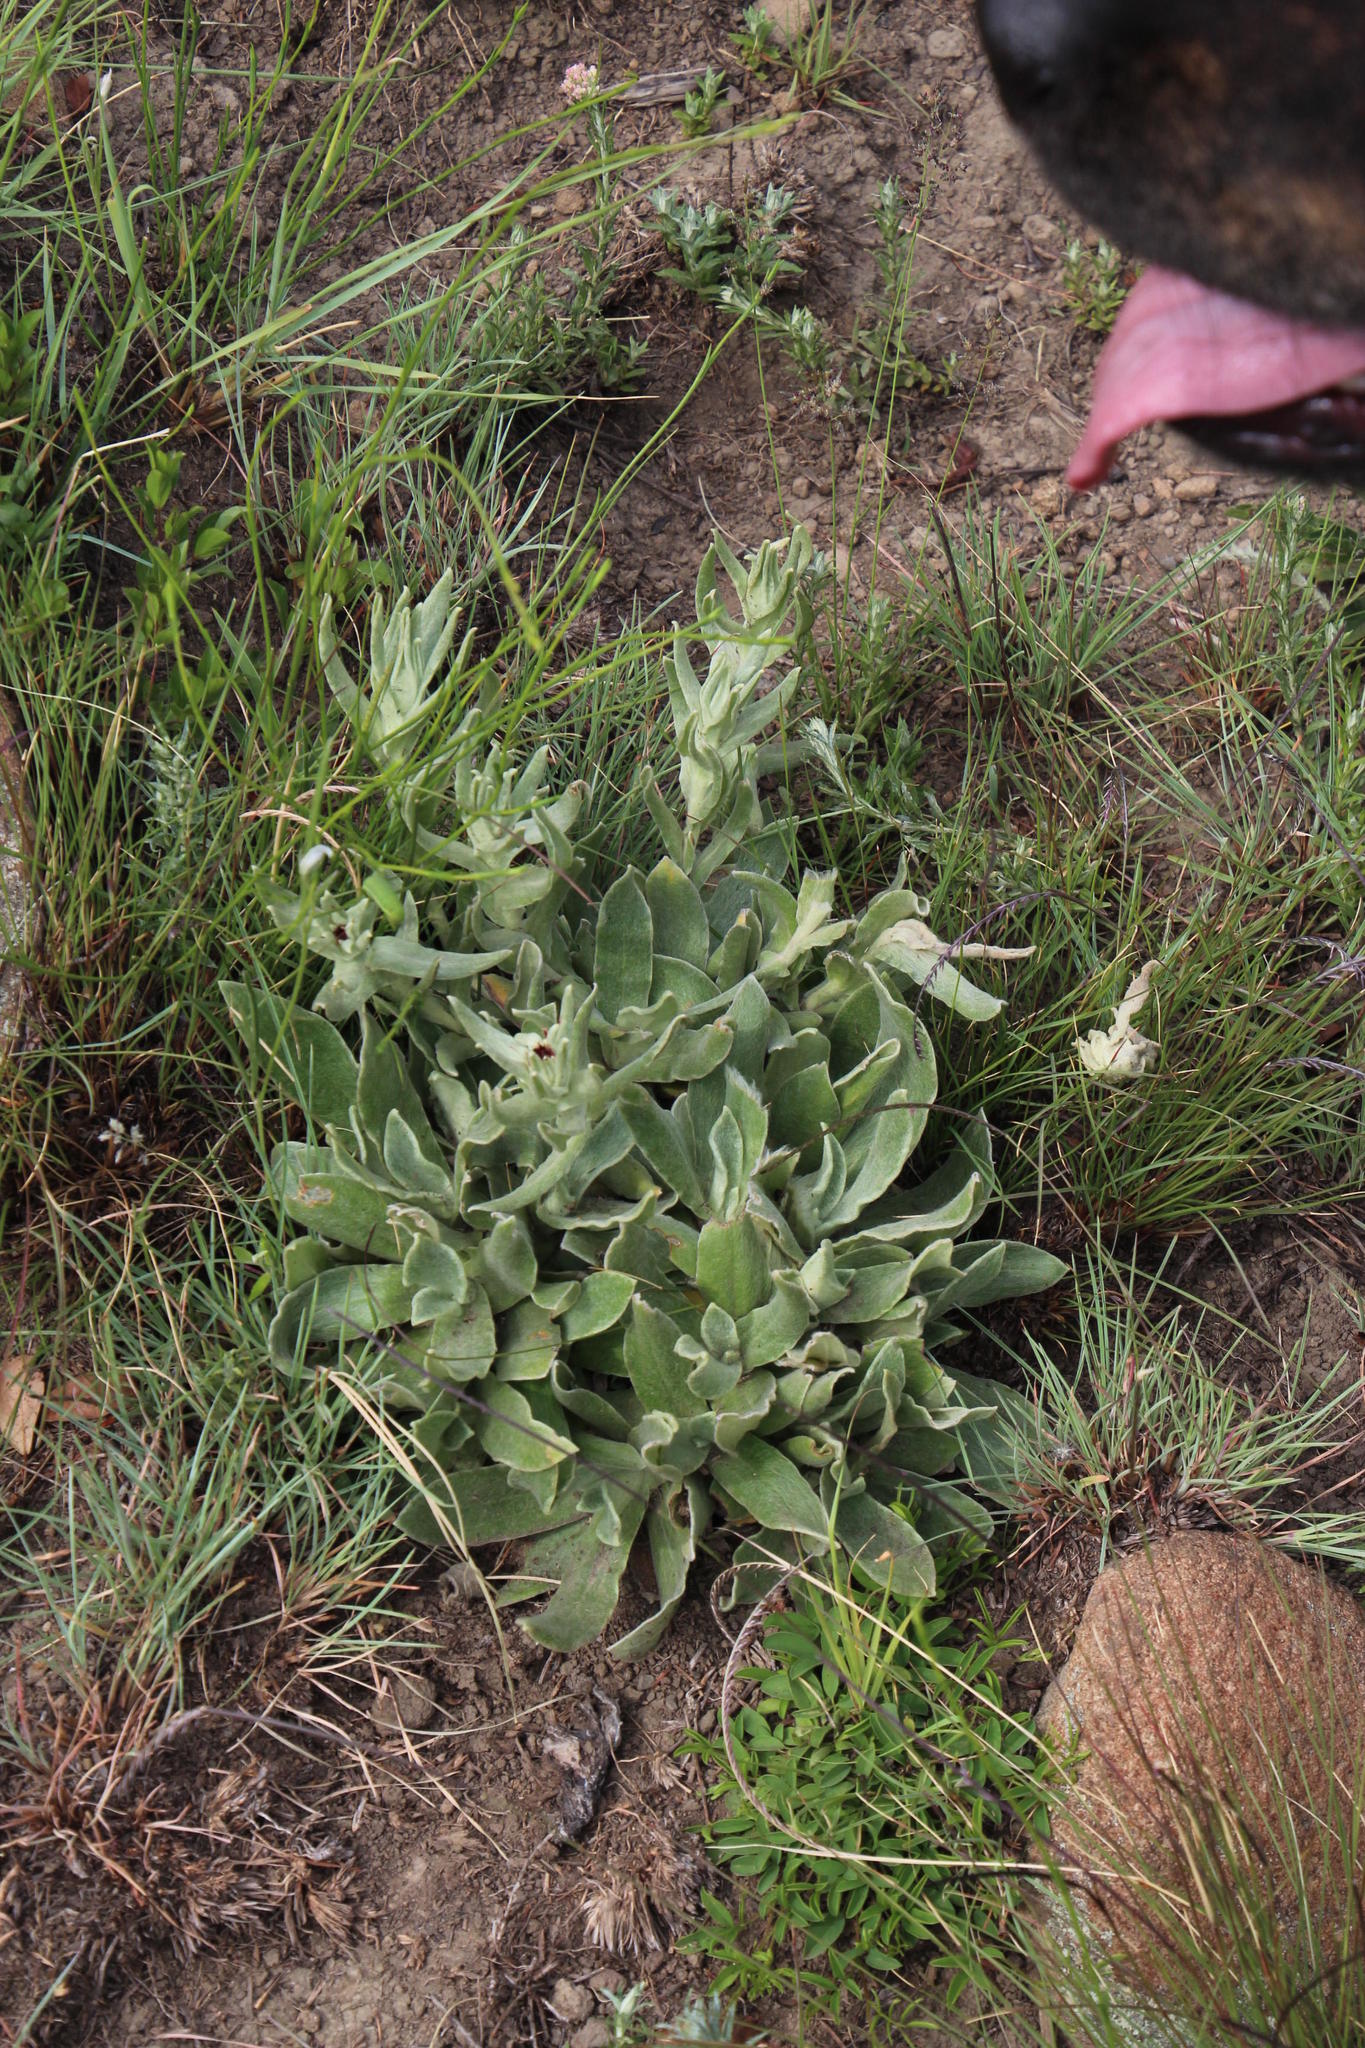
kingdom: Plantae
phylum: Tracheophyta
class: Magnoliopsida
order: Asterales
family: Asteraceae
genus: Helichrysum
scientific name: Helichrysum appendiculatum
